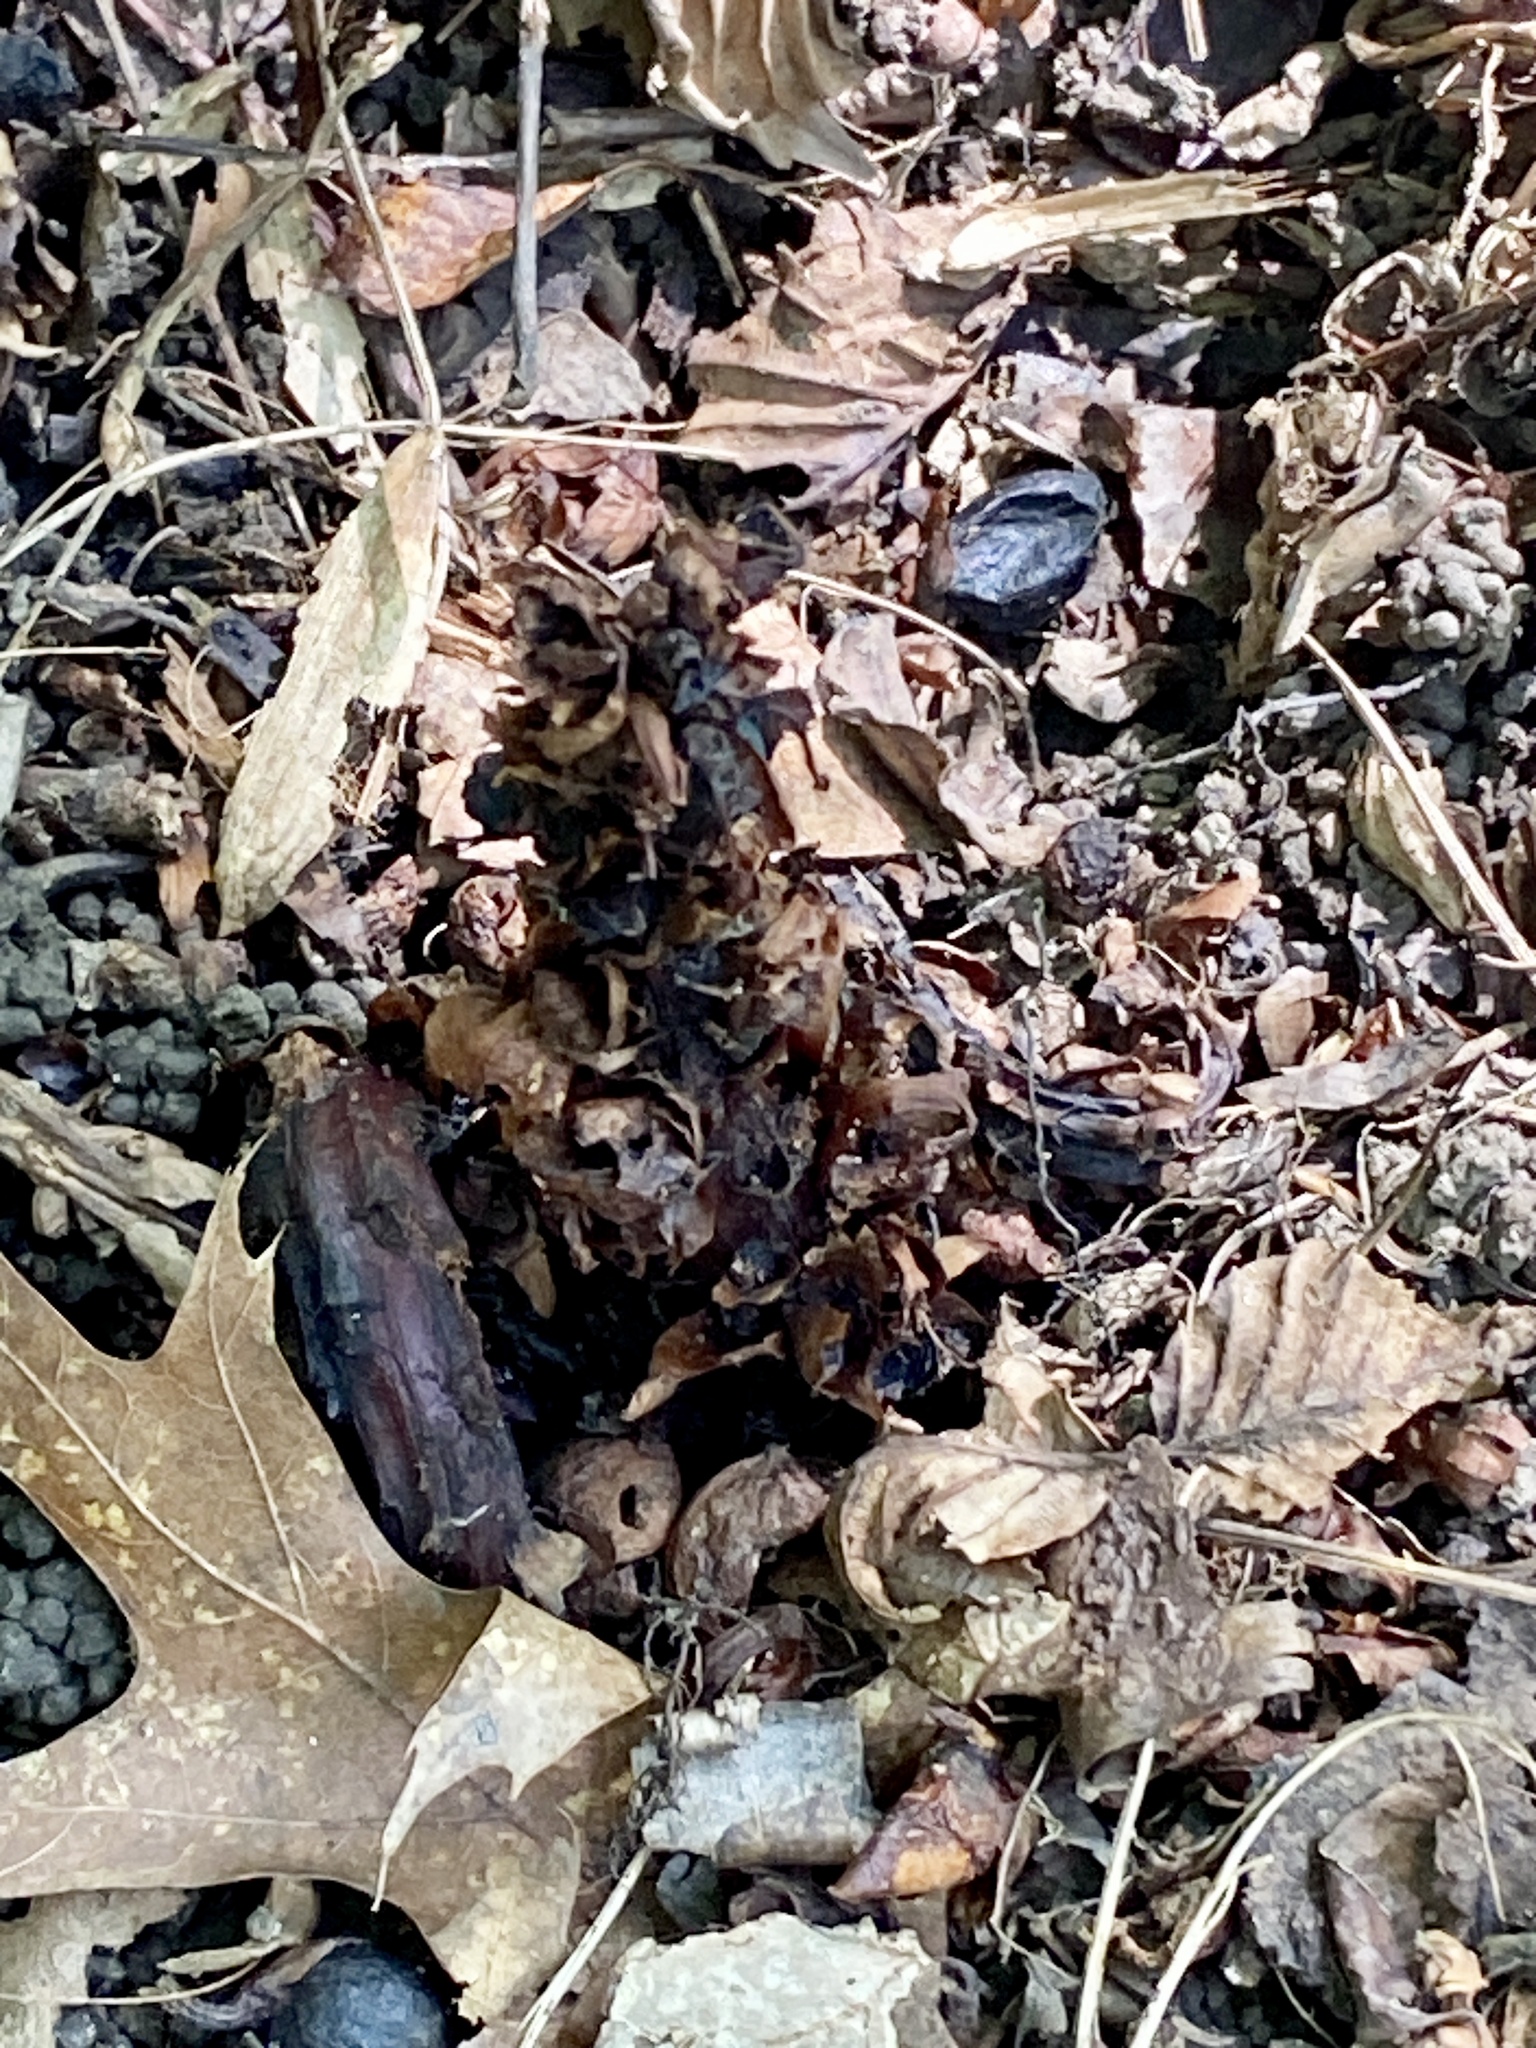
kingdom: Plantae
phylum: Tracheophyta
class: Magnoliopsida
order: Lamiales
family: Orobanchaceae
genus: Conopholis
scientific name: Conopholis americana
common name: American cancer-root
